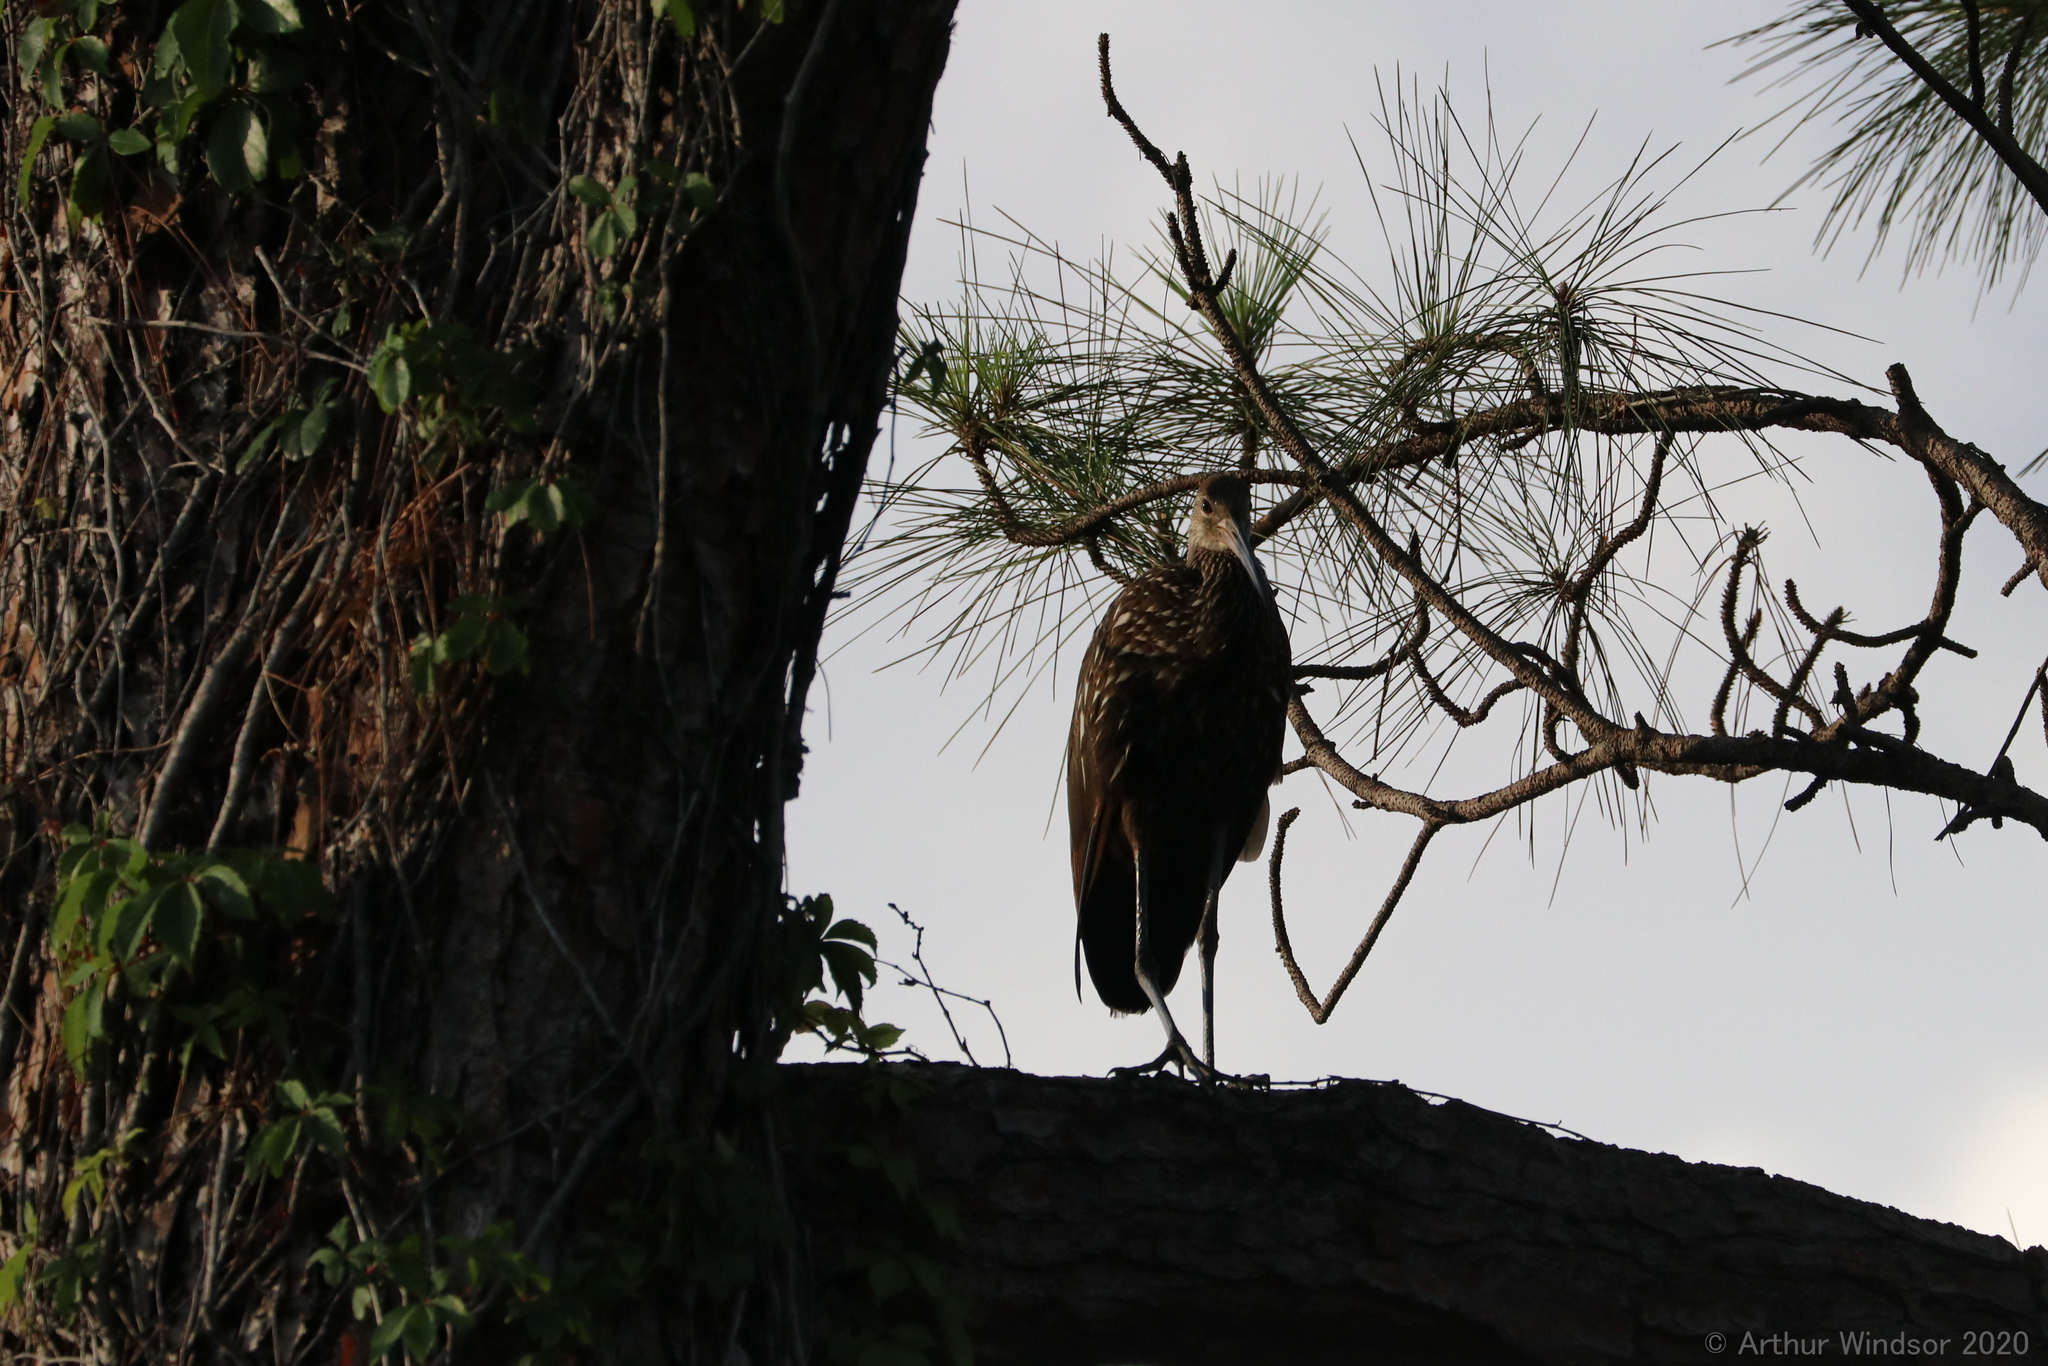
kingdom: Animalia
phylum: Chordata
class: Aves
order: Gruiformes
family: Aramidae
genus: Aramus
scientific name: Aramus guarauna
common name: Limpkin
